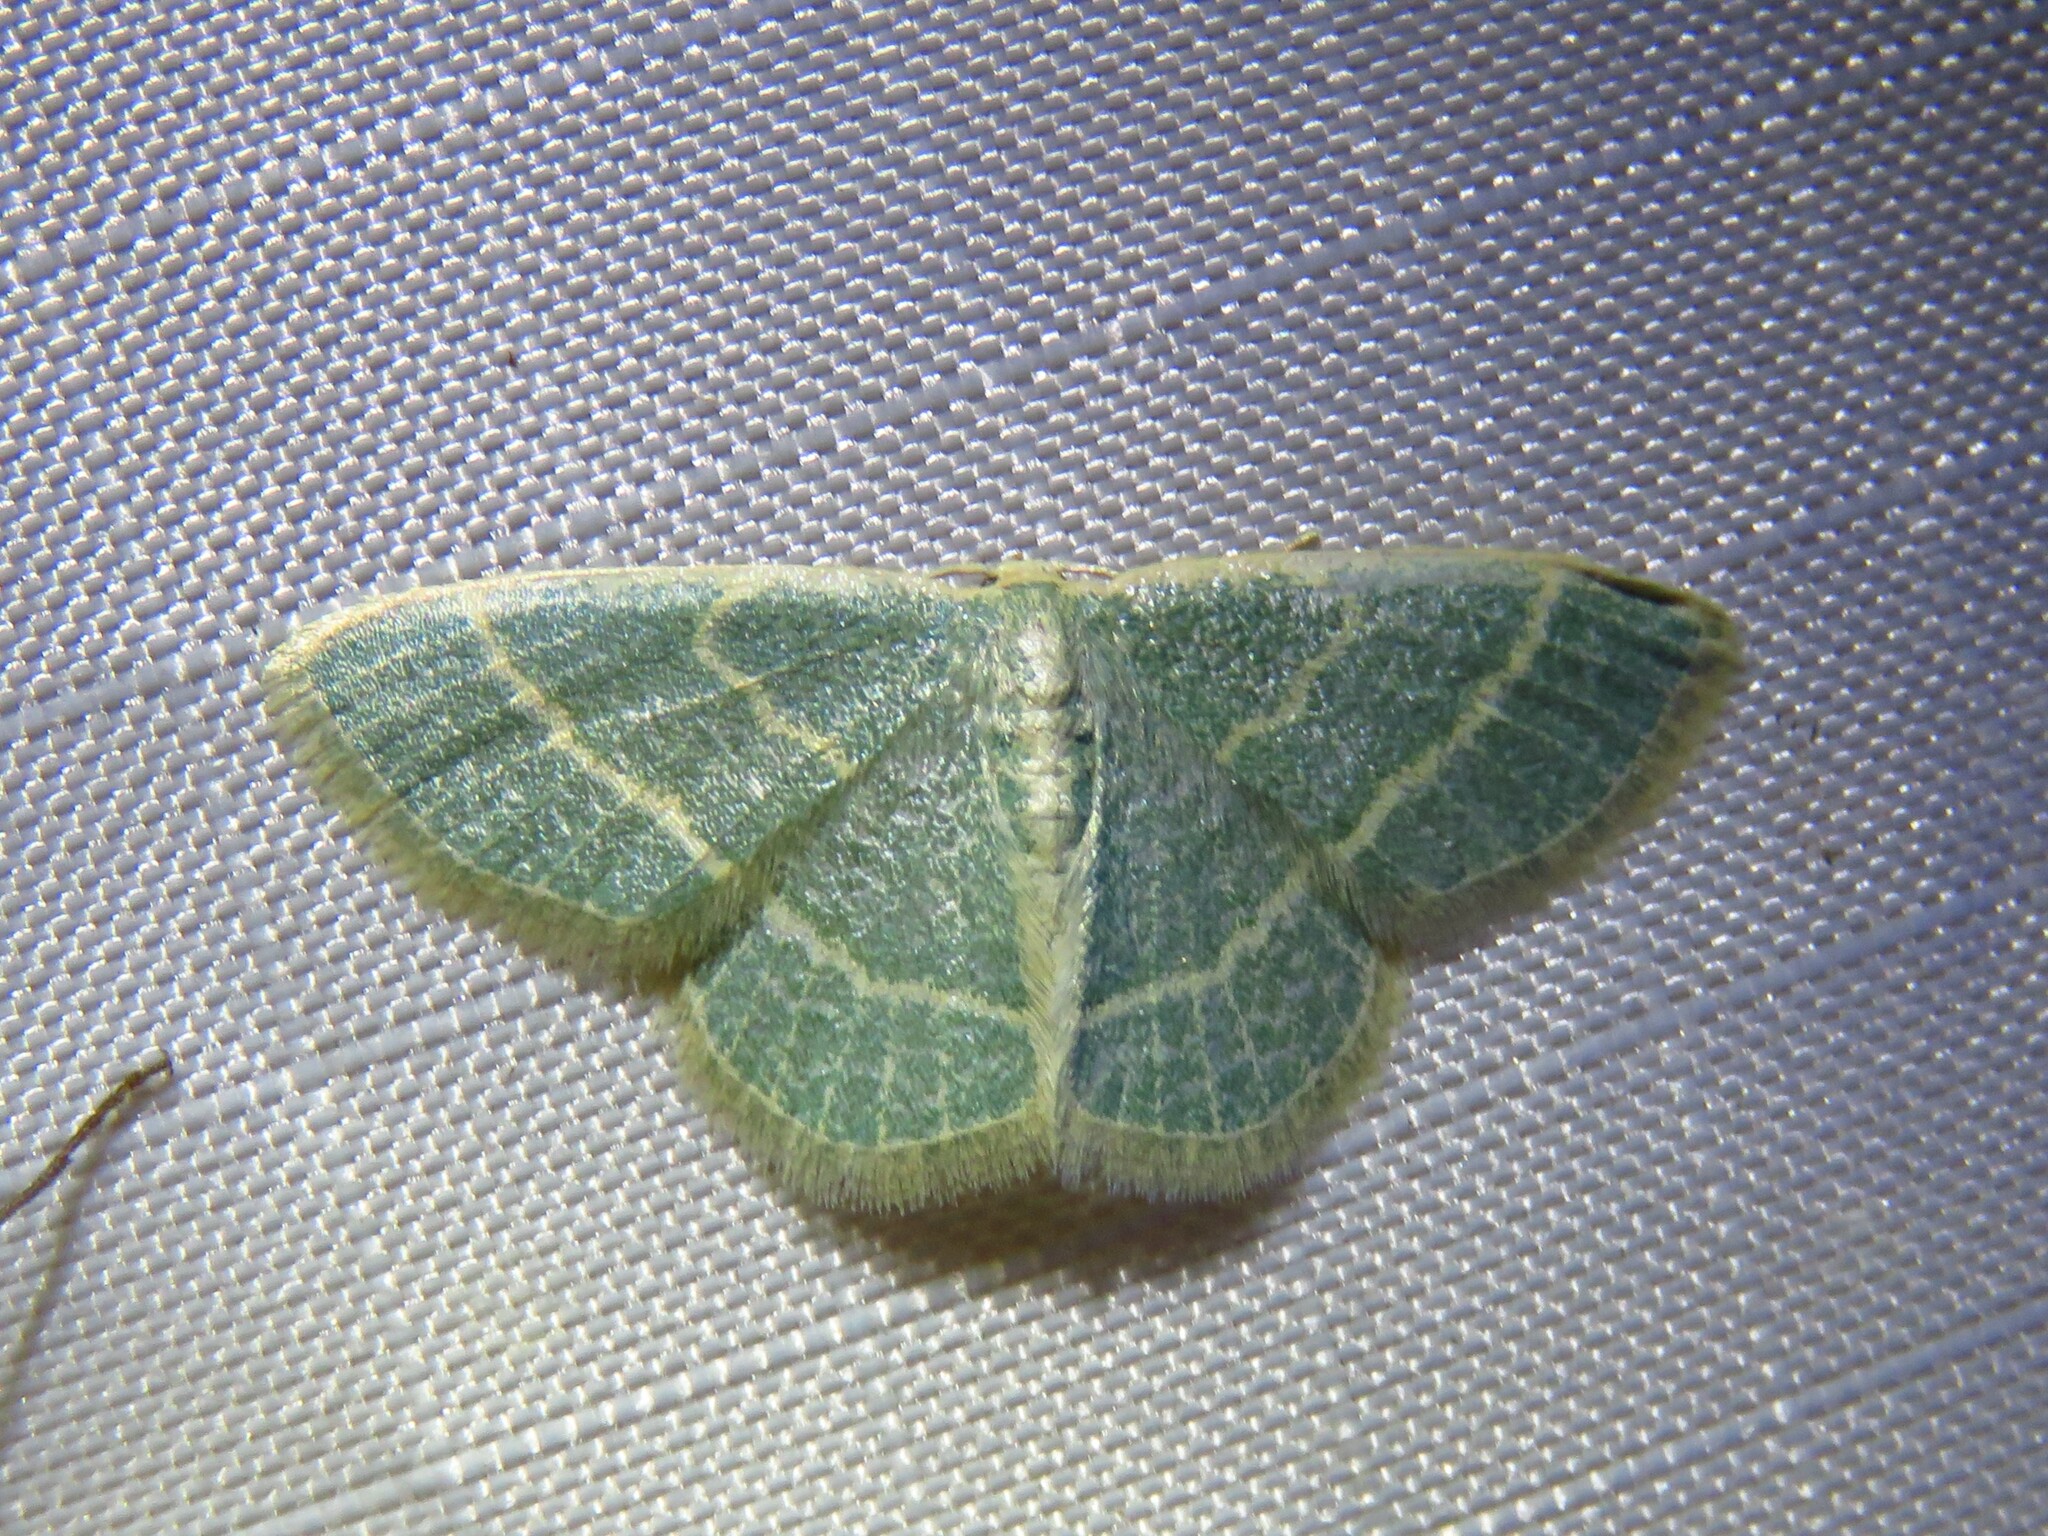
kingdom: Animalia
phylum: Arthropoda
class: Insecta
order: Lepidoptera
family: Geometridae
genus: Chlorochlamys
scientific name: Chlorochlamys chloroleucaria
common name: Blackberry looper
